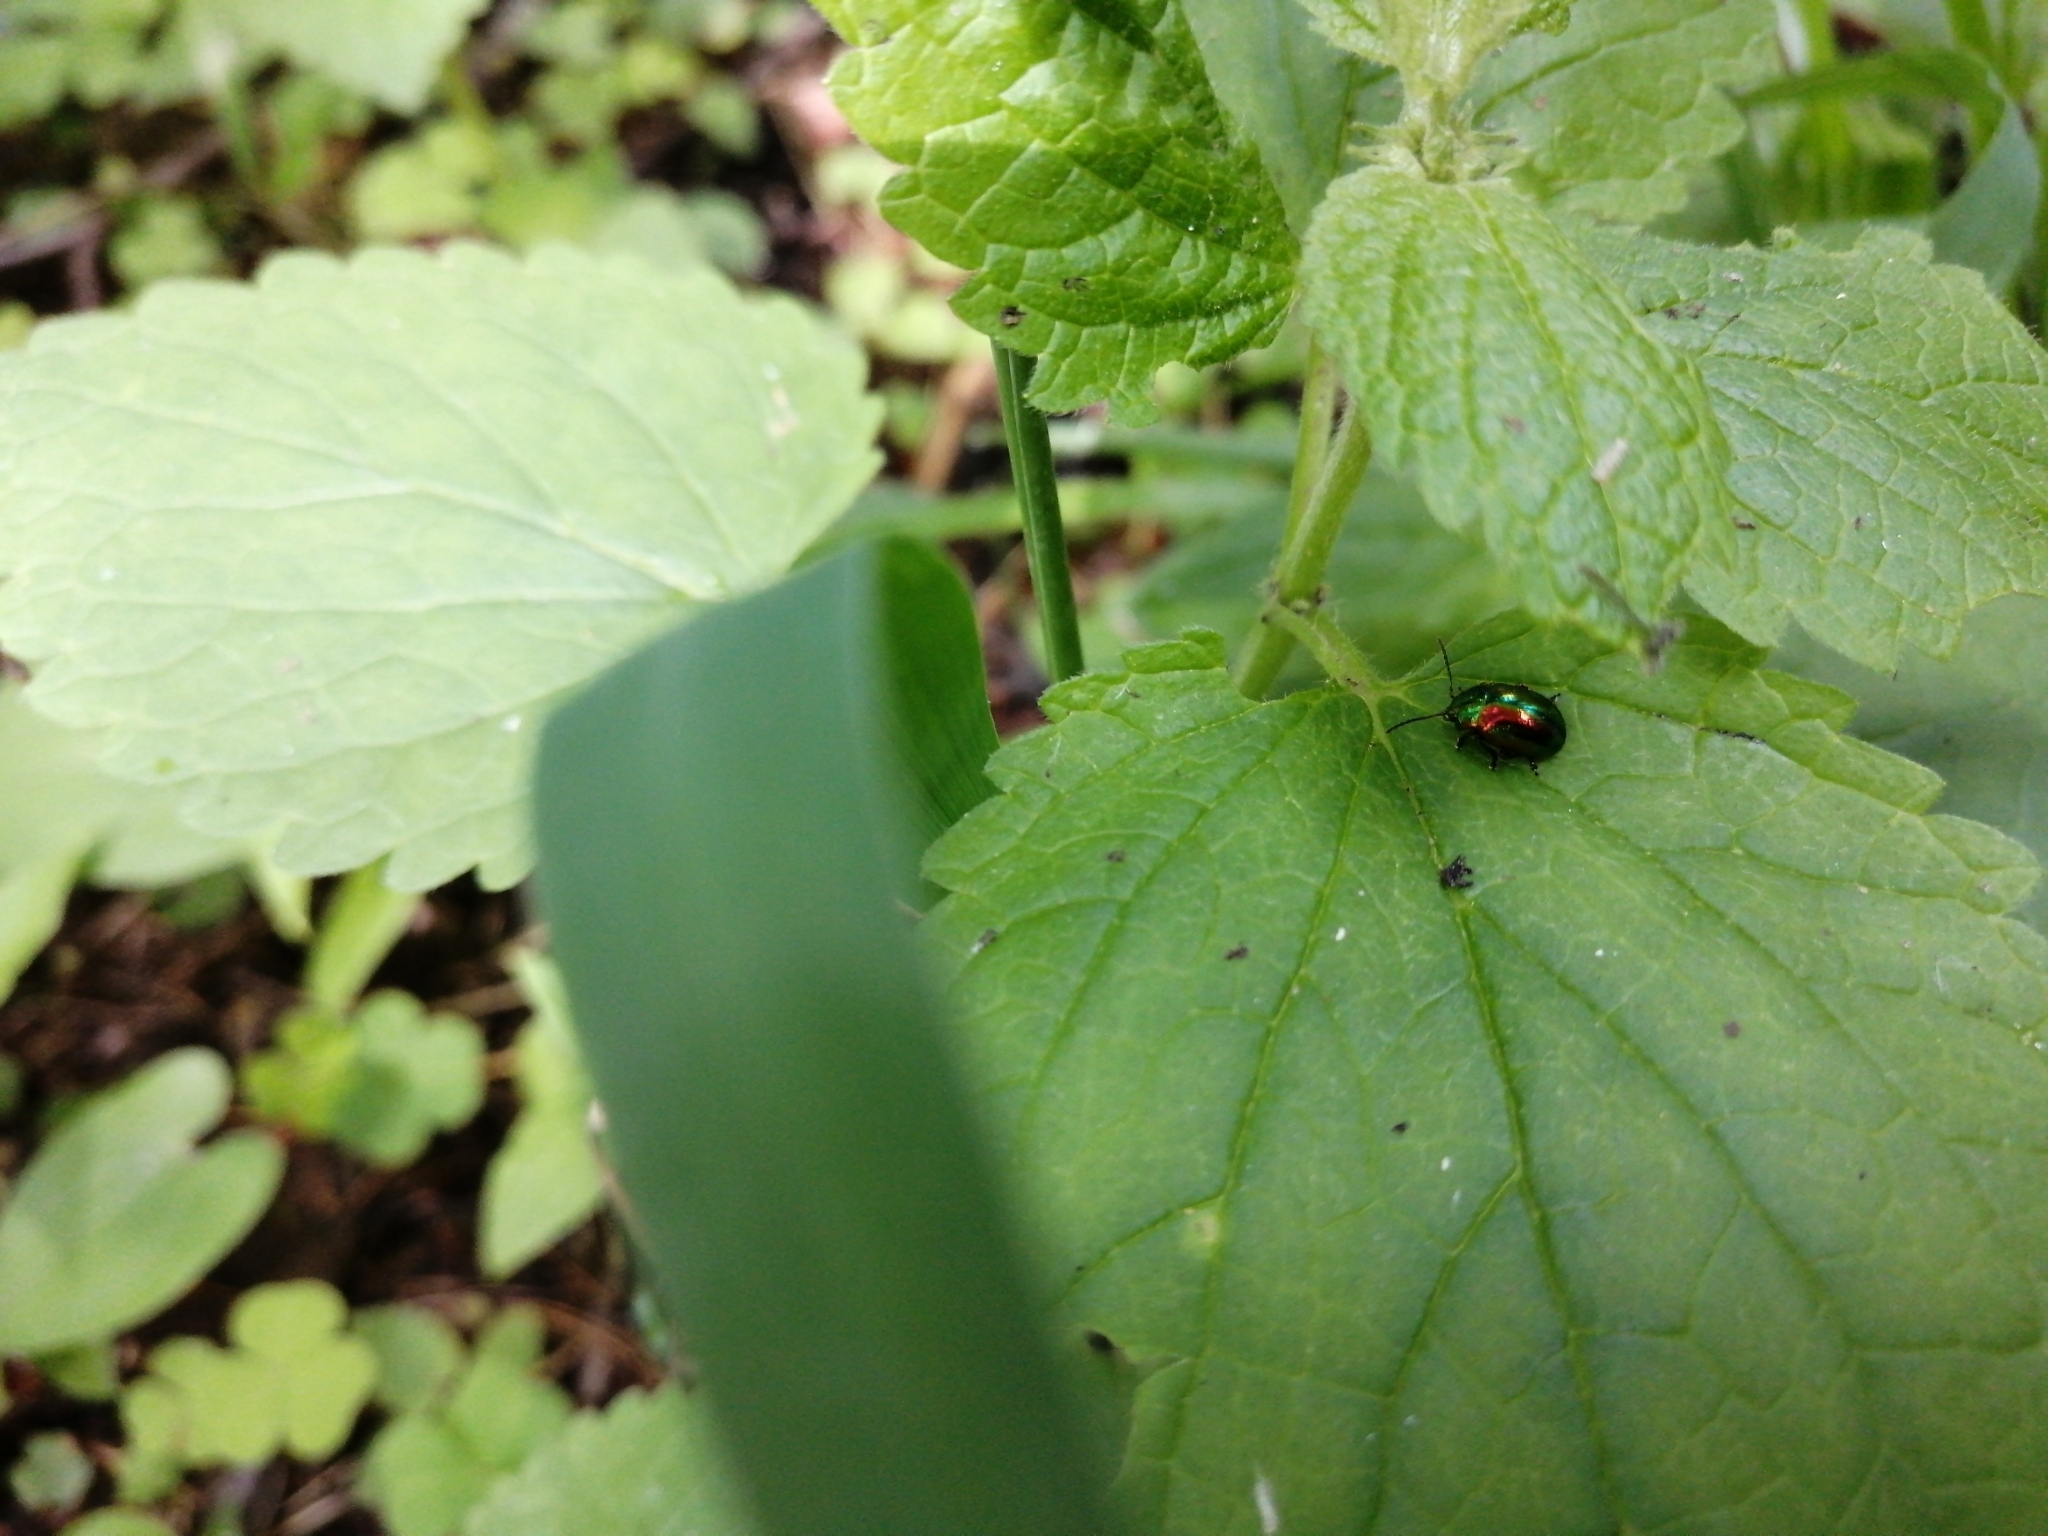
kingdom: Animalia
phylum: Arthropoda
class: Insecta
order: Coleoptera
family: Chrysomelidae
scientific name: Chrysomelidae
